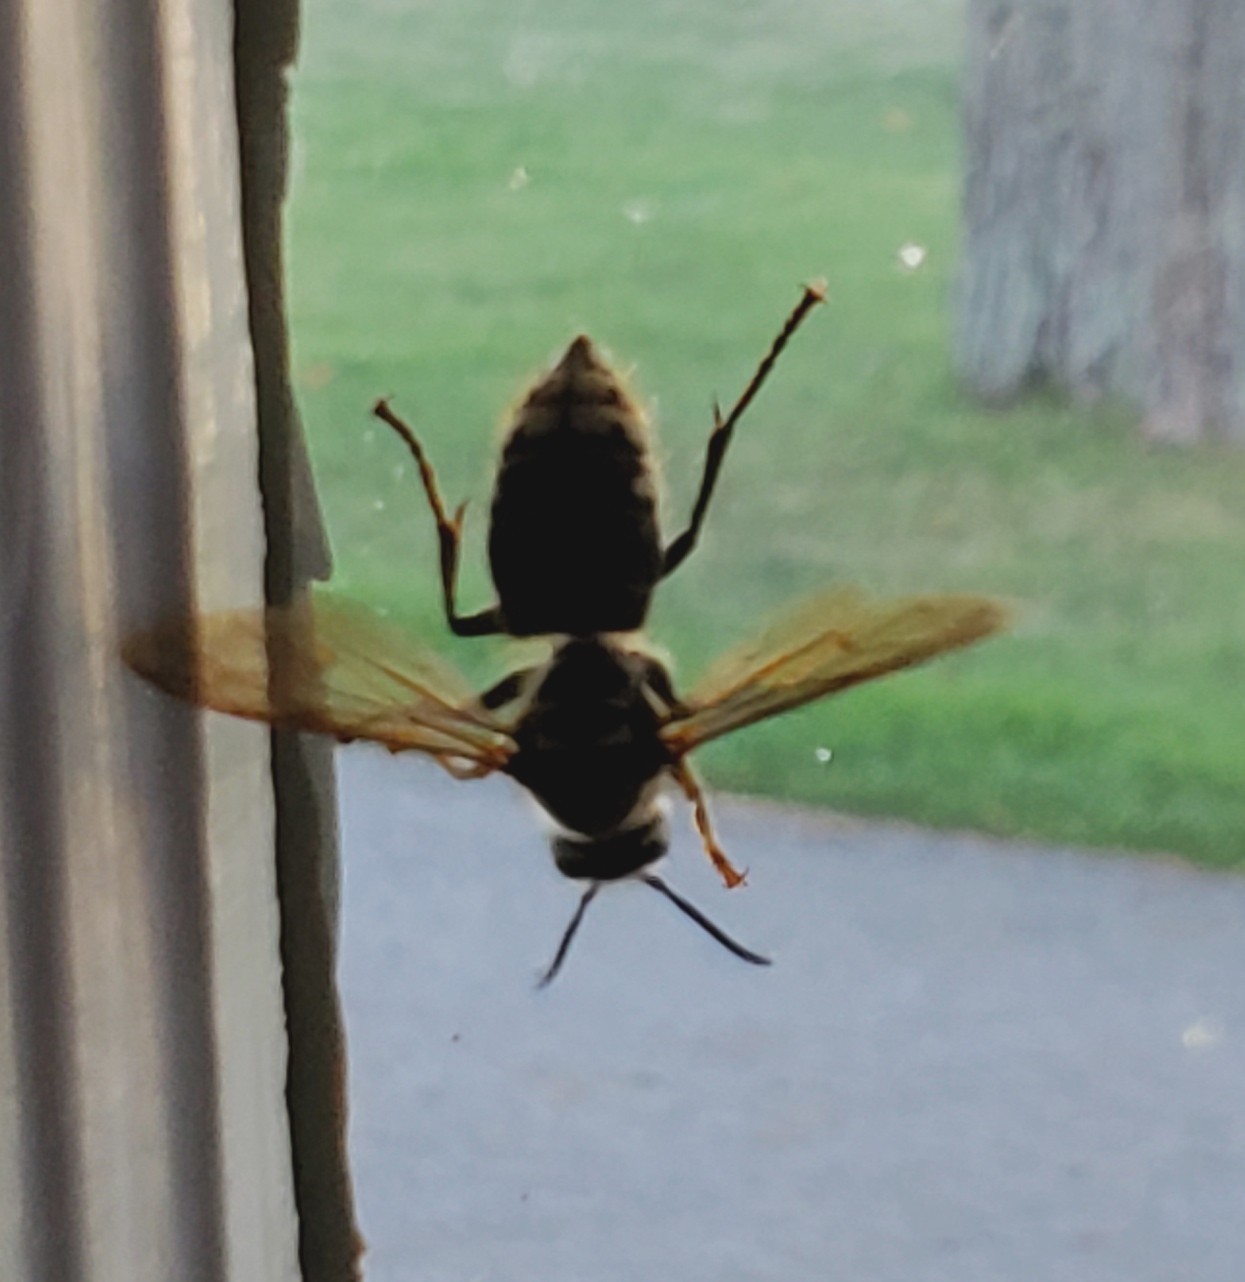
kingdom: Animalia
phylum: Arthropoda
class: Insecta
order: Hymenoptera
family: Vespidae
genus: Dolichovespula
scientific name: Dolichovespula maculata
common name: Bald-faced hornet
